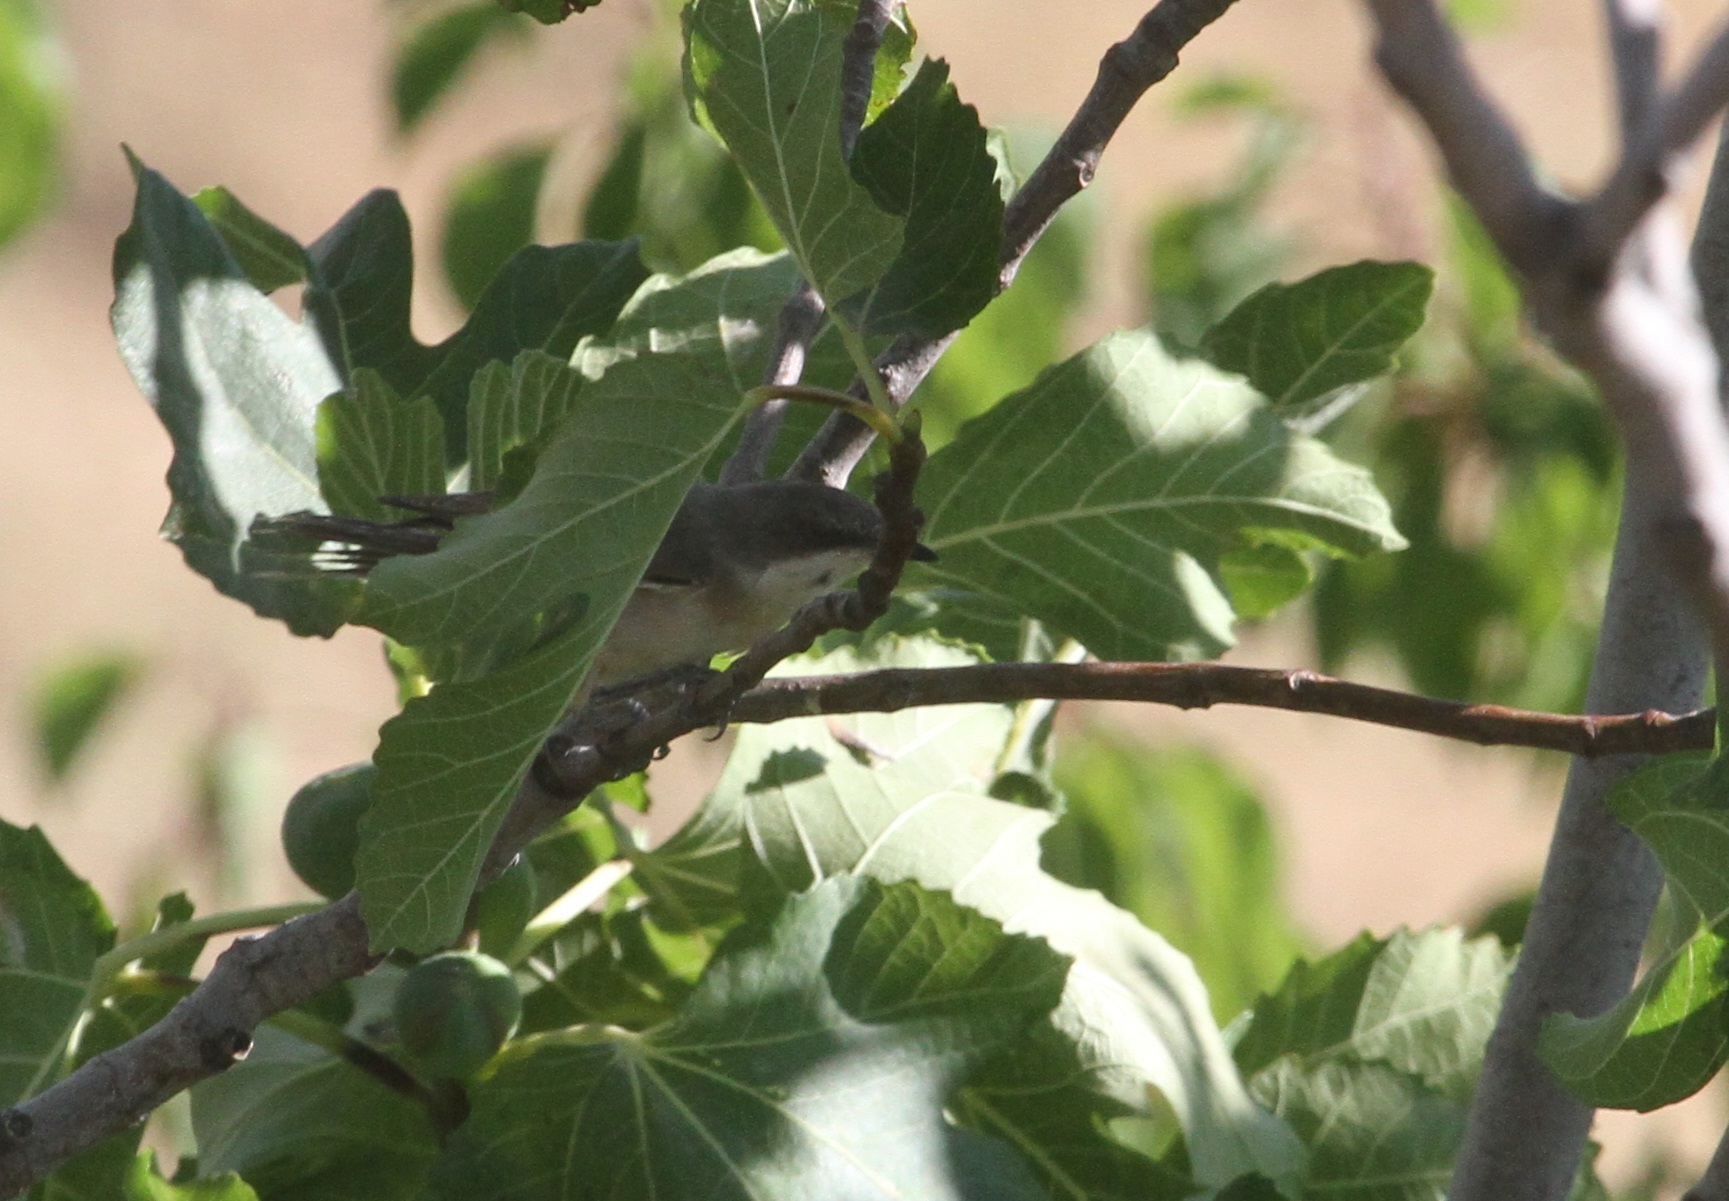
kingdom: Animalia
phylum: Chordata
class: Aves
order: Passeriformes
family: Sylviidae
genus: Sylvia
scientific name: Sylvia hortensis
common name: Orphean warbler
